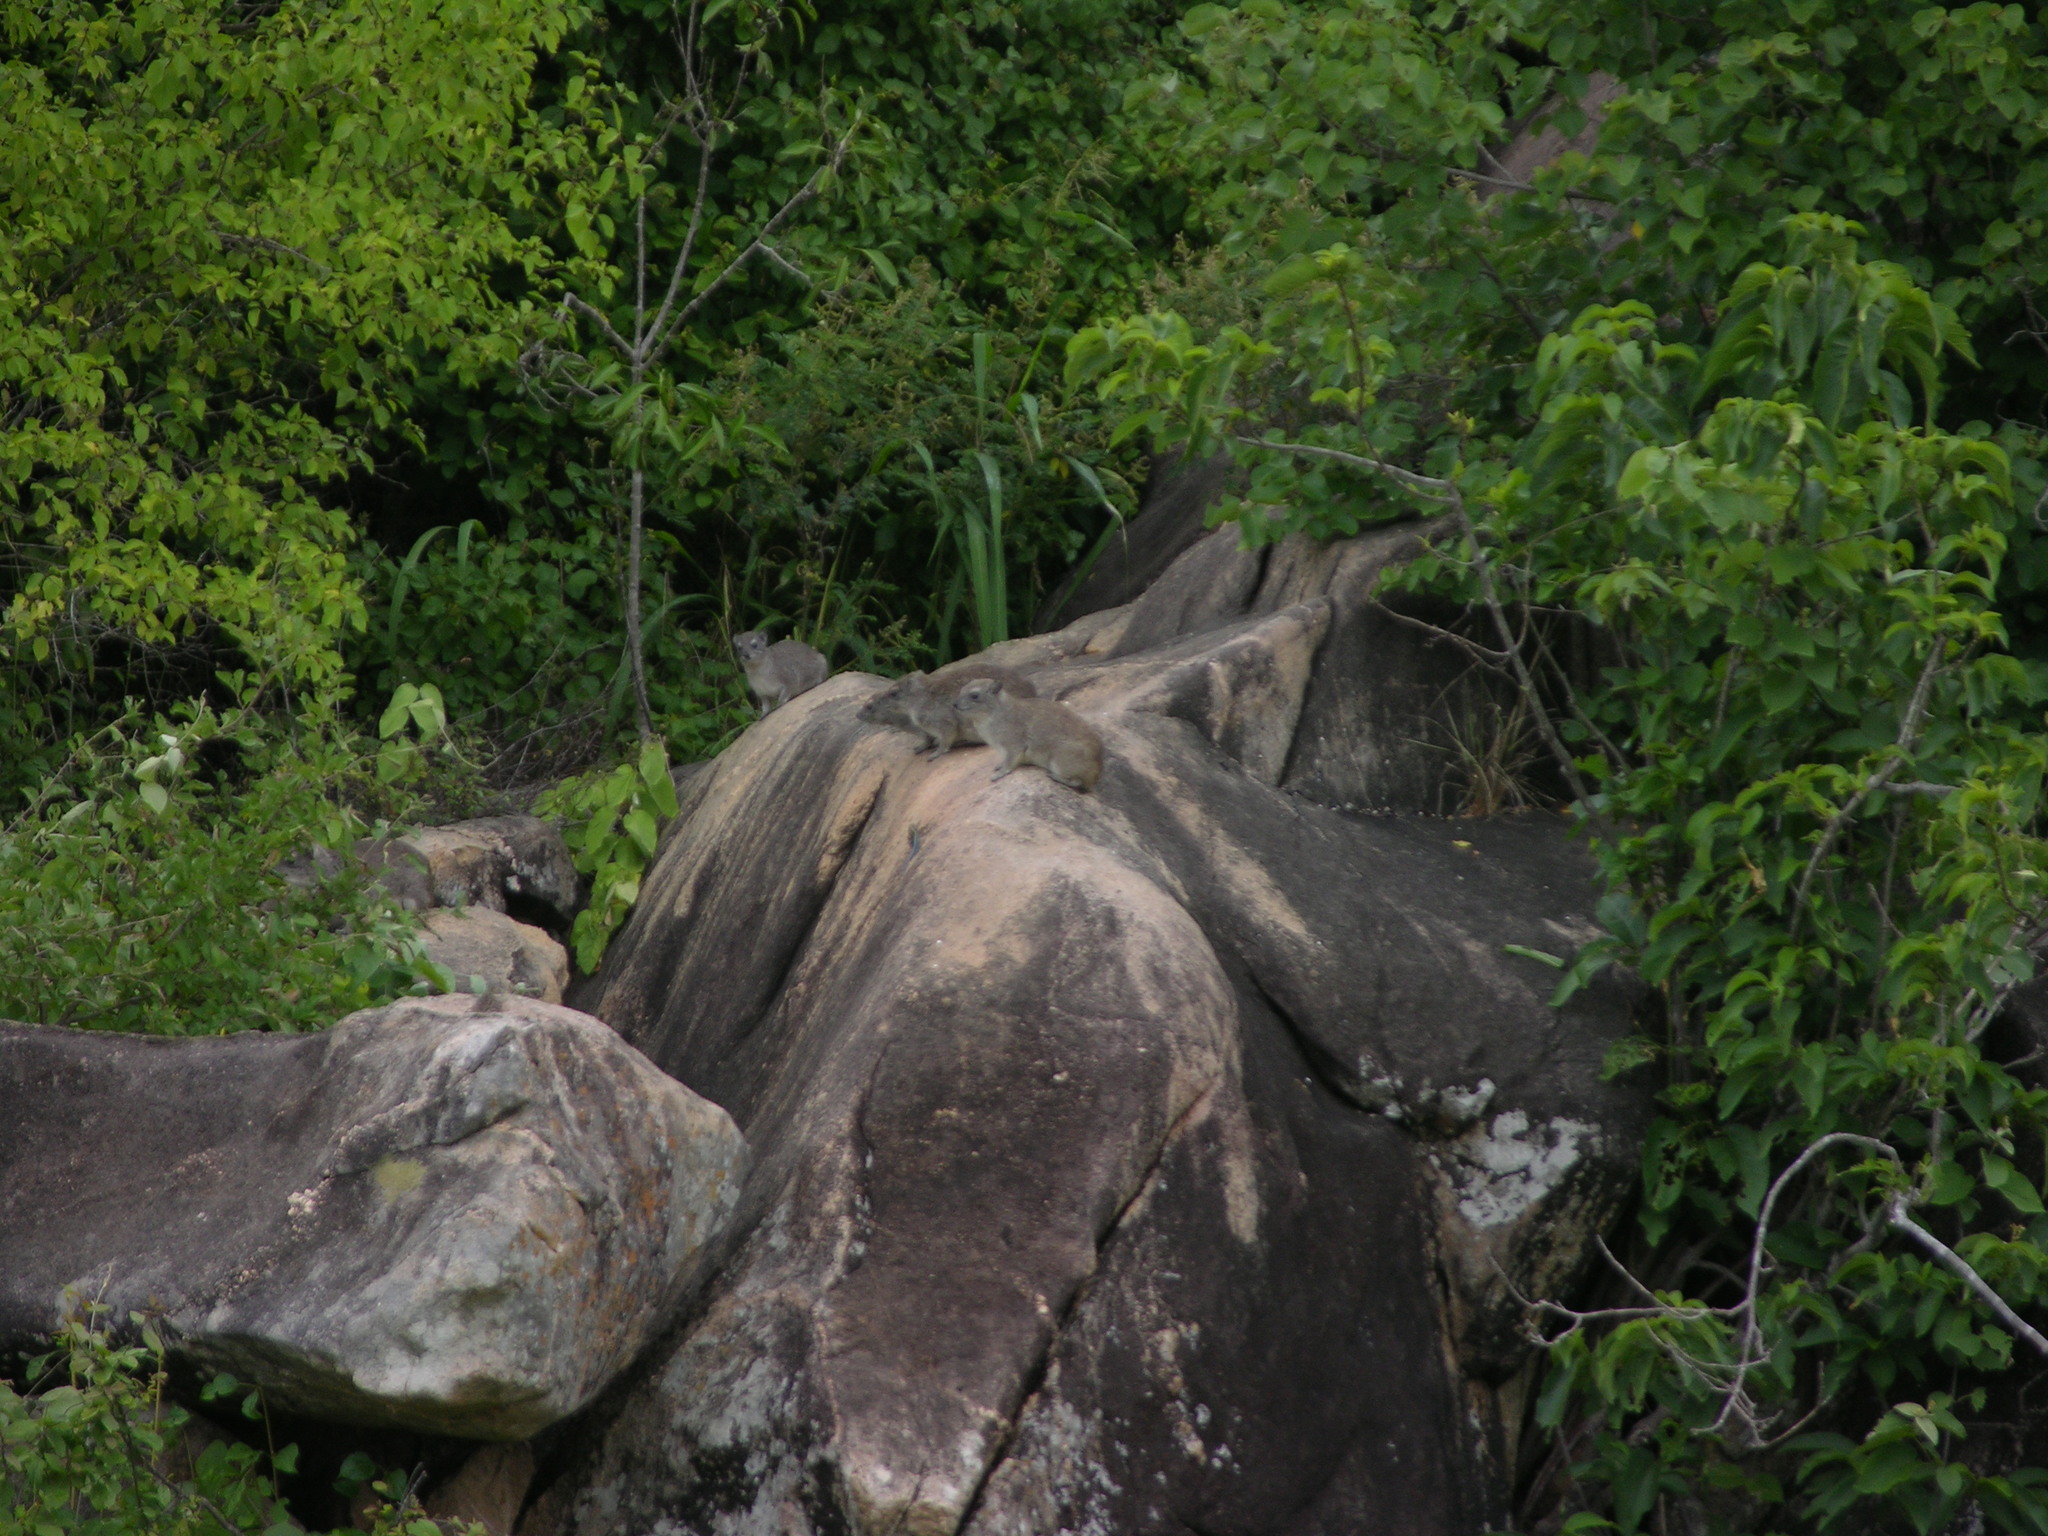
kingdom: Animalia
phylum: Chordata
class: Mammalia
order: Hyracoidea
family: Procaviidae
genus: Heterohyrax
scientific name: Heterohyrax brucei
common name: Bush hyrax
